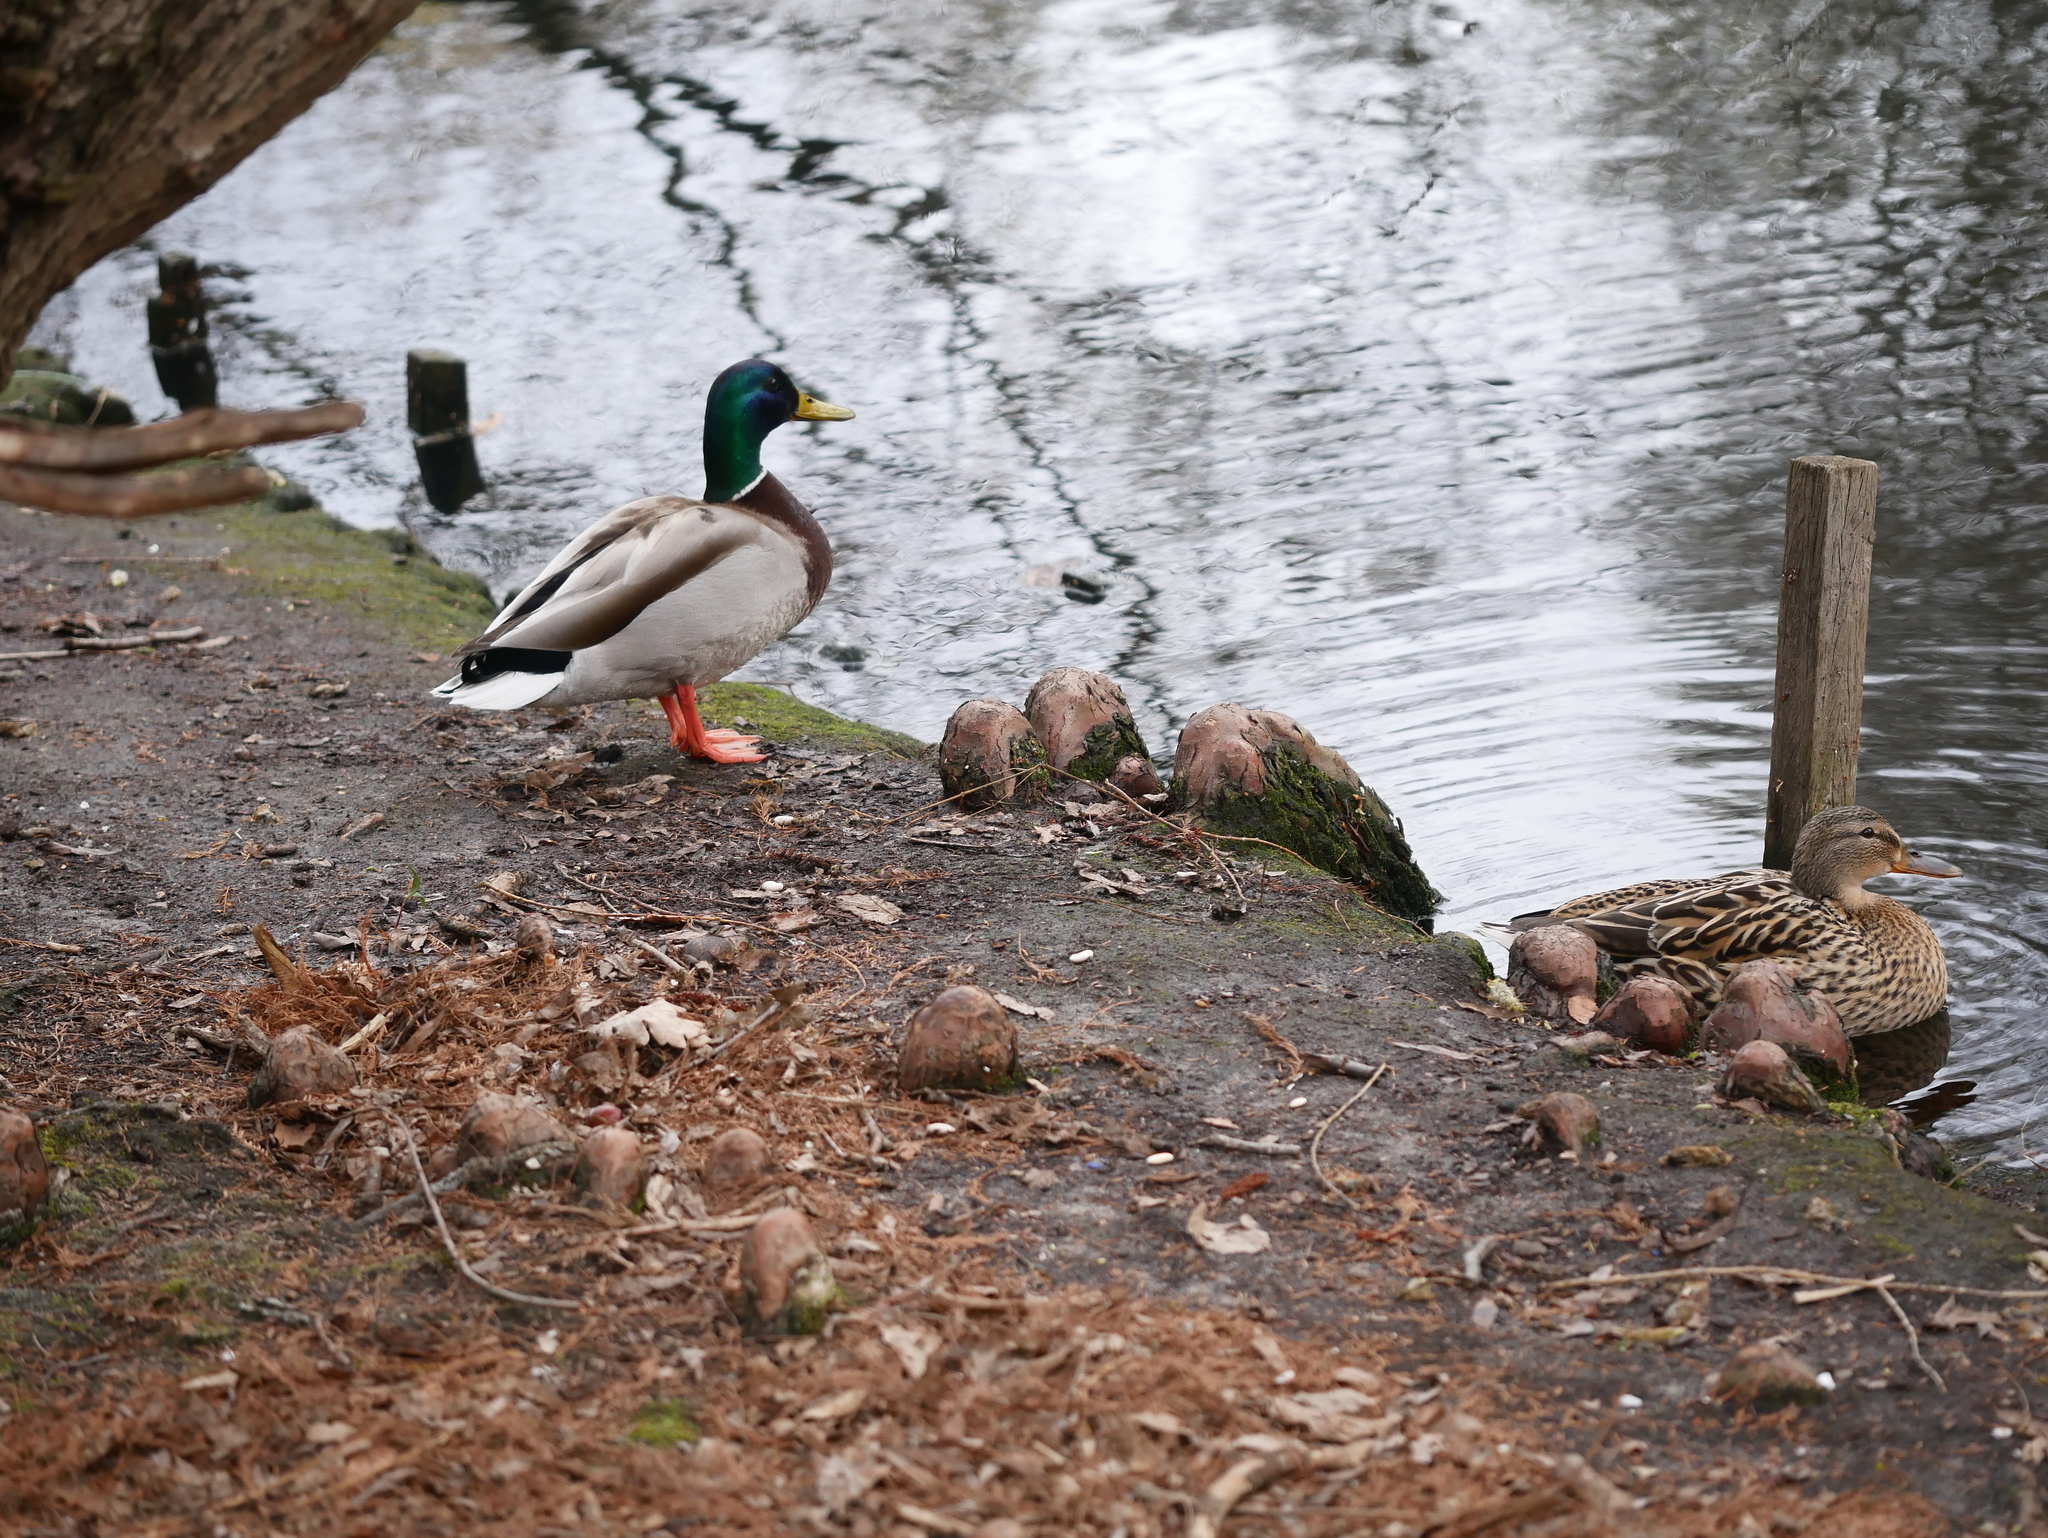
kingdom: Animalia
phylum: Chordata
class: Aves
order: Anseriformes
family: Anatidae
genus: Anas
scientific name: Anas platyrhynchos
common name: Mallard
